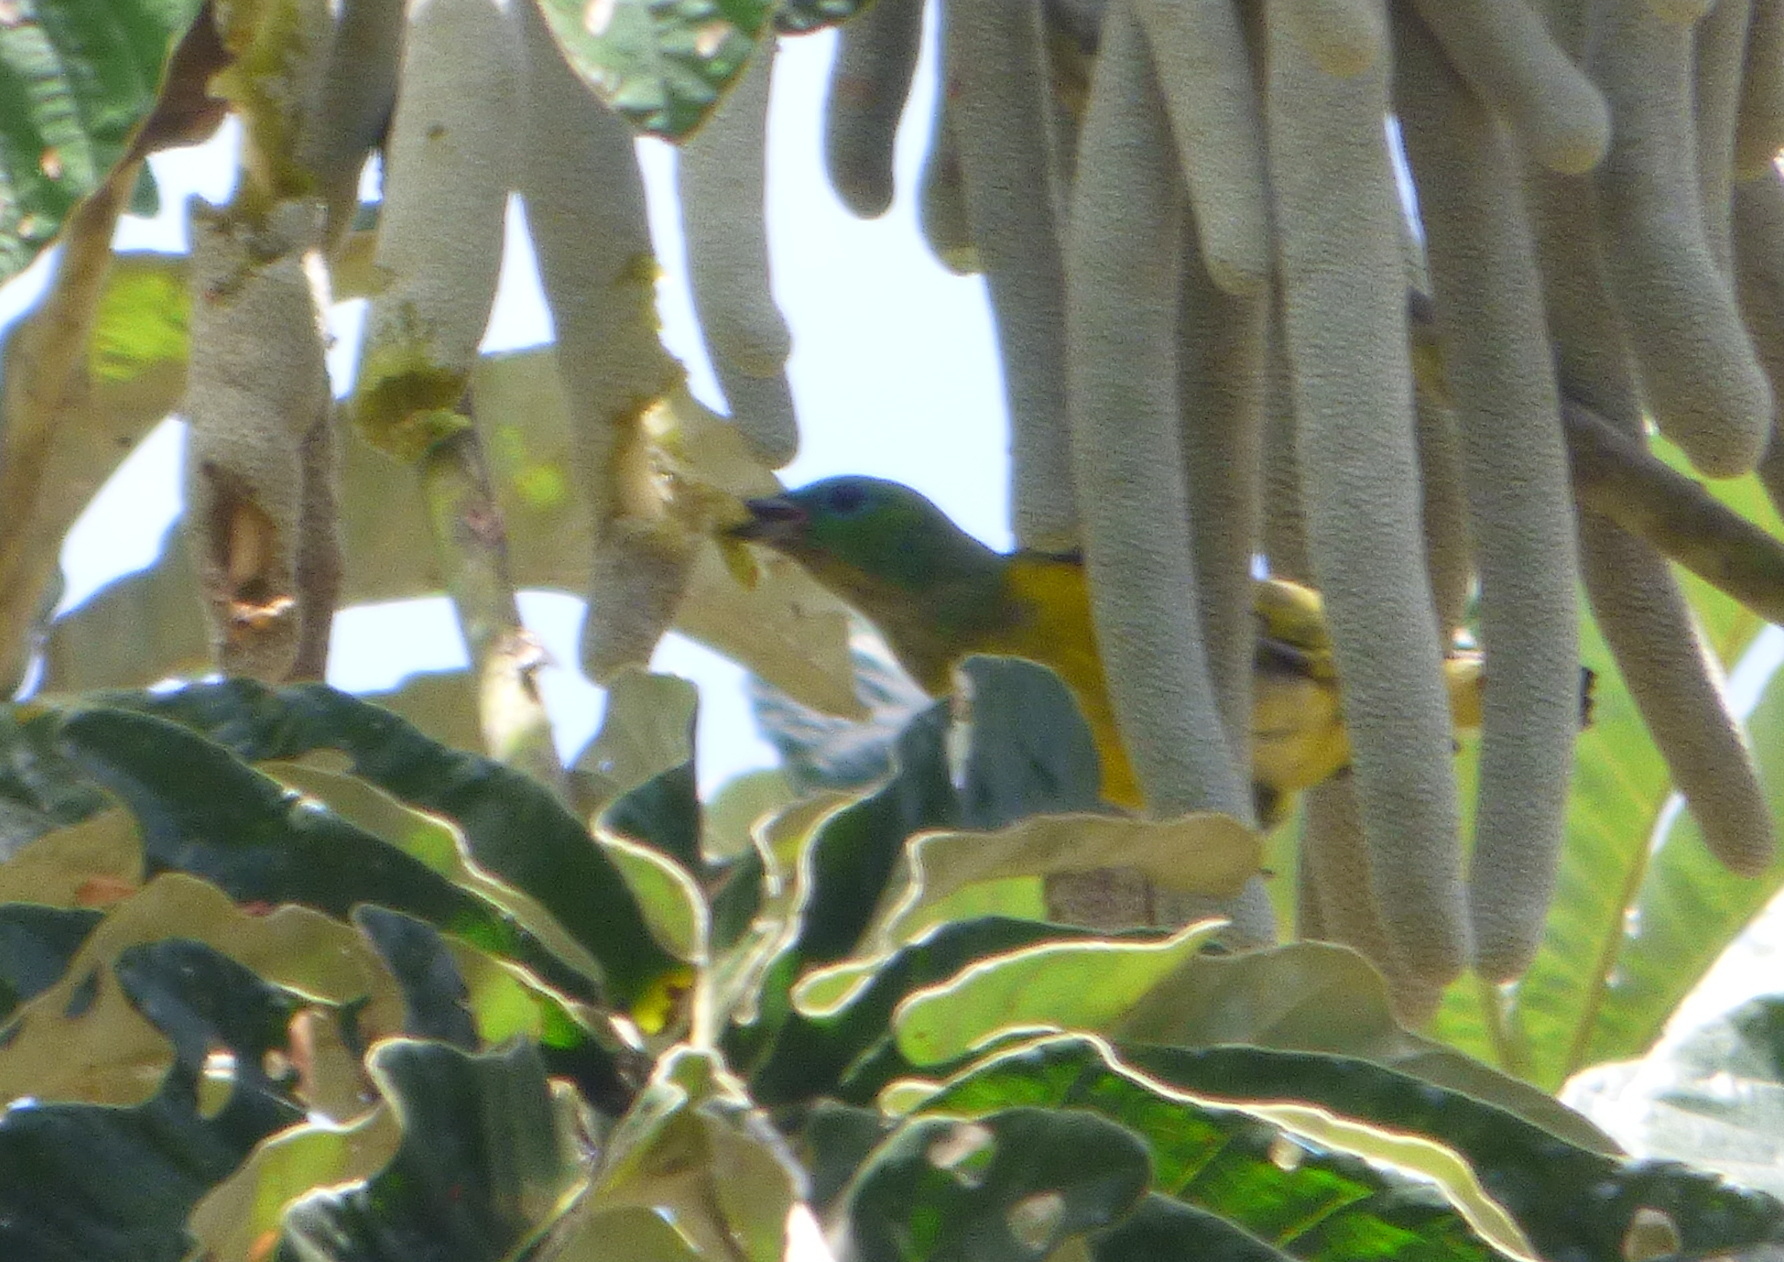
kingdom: Animalia
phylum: Chordata
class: Aves
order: Passeriformes
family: Fringillidae
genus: Chlorophonia
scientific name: Chlorophonia cyanea
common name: Blue-naped chlorophonia
